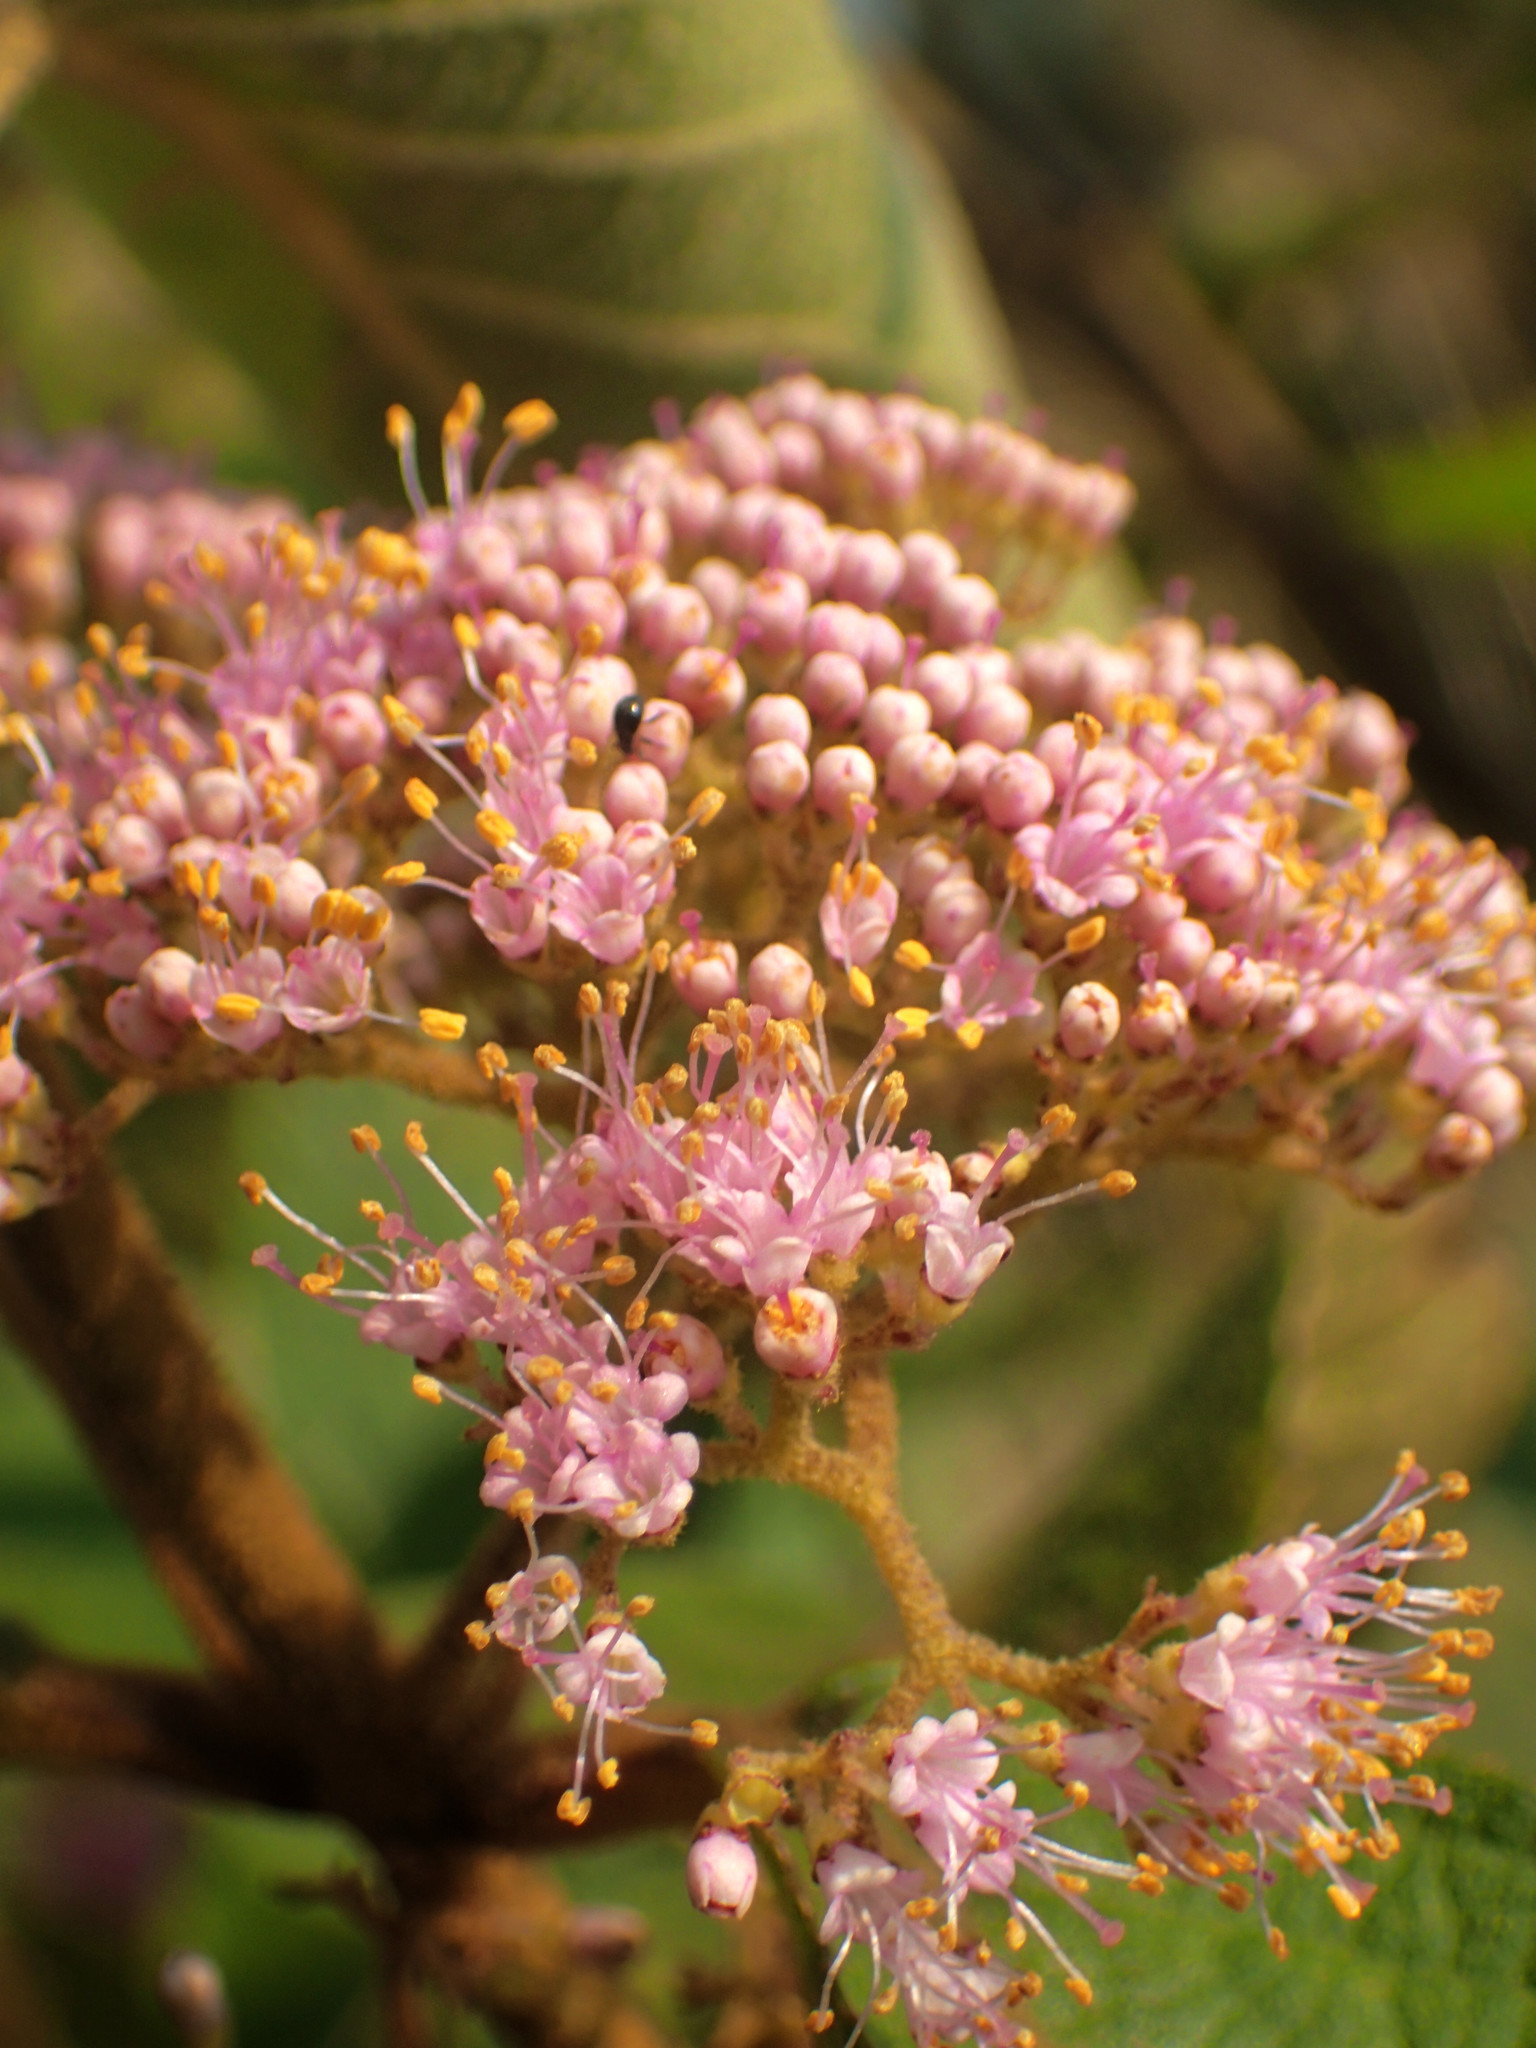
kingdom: Plantae
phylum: Tracheophyta
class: Magnoliopsida
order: Lamiales
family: Lamiaceae
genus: Callicarpa
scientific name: Callicarpa pedunculata
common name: Velvetleaf
